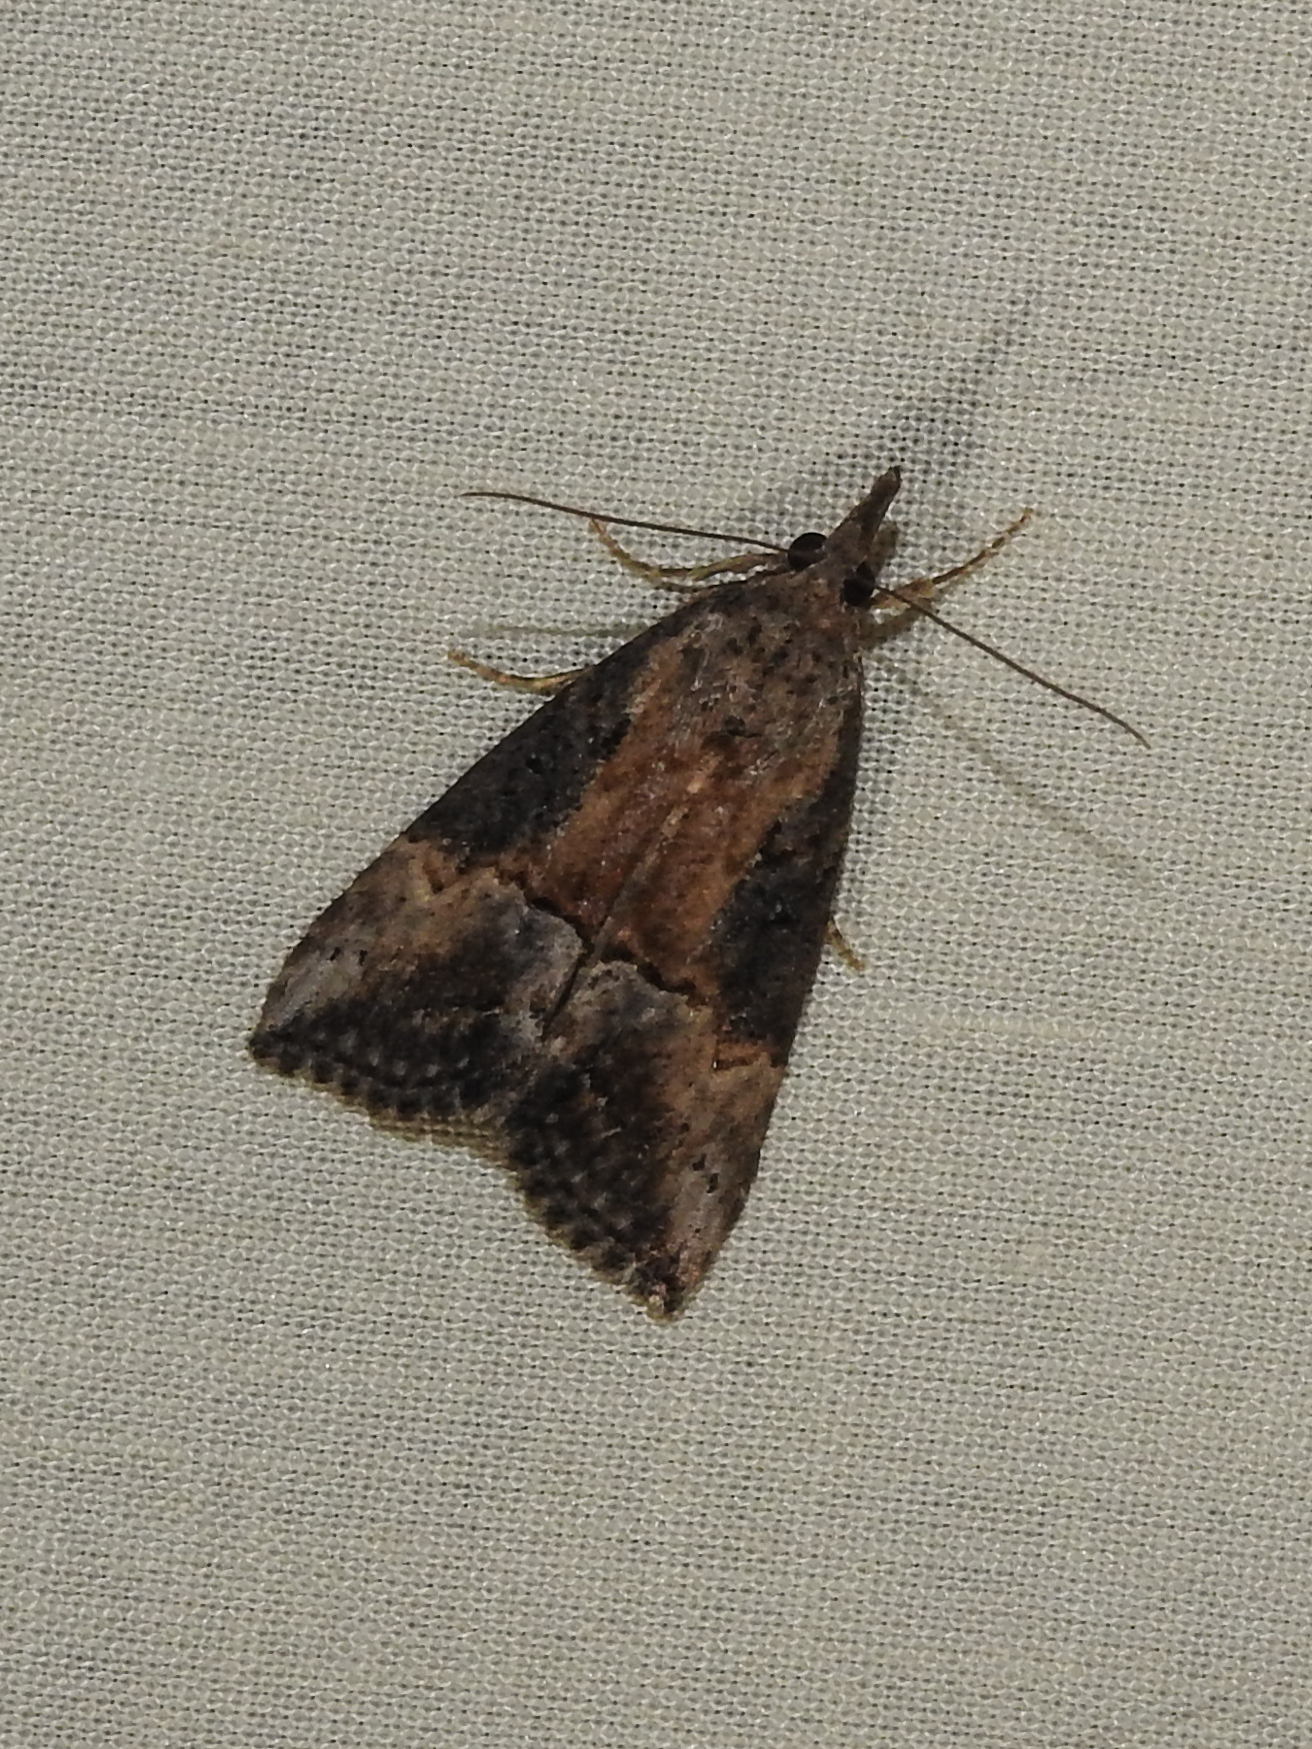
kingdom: Animalia
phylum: Arthropoda
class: Insecta
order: Lepidoptera
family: Erebidae
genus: Hypena
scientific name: Hypena scabra
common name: Green cloverworm
